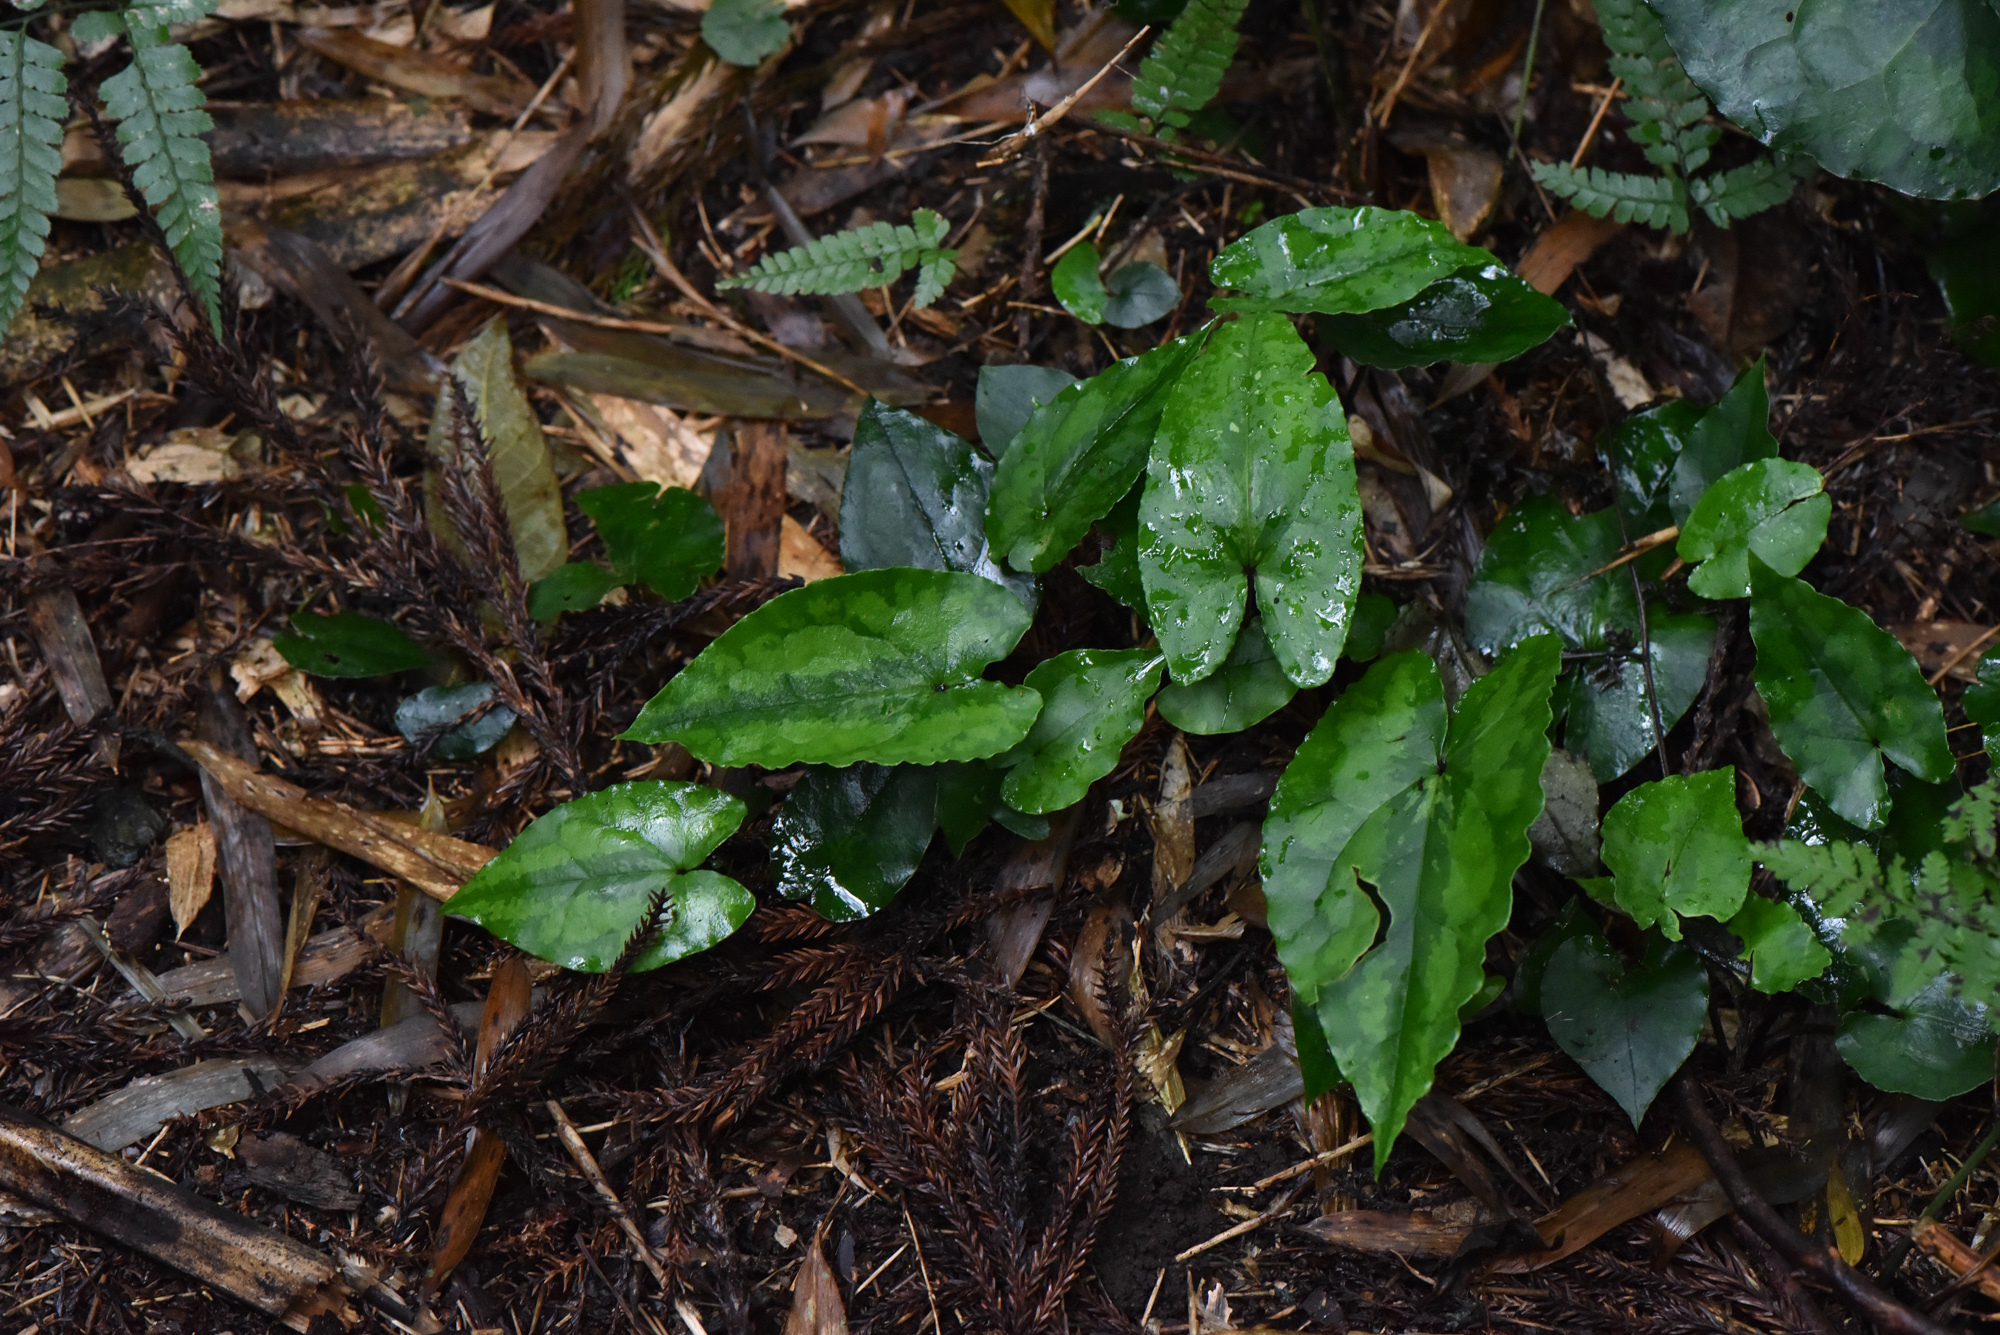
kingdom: Plantae
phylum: Tracheophyta
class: Magnoliopsida
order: Piperales
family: Aristolochiaceae
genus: Asarum
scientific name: Asarum hypogynum
